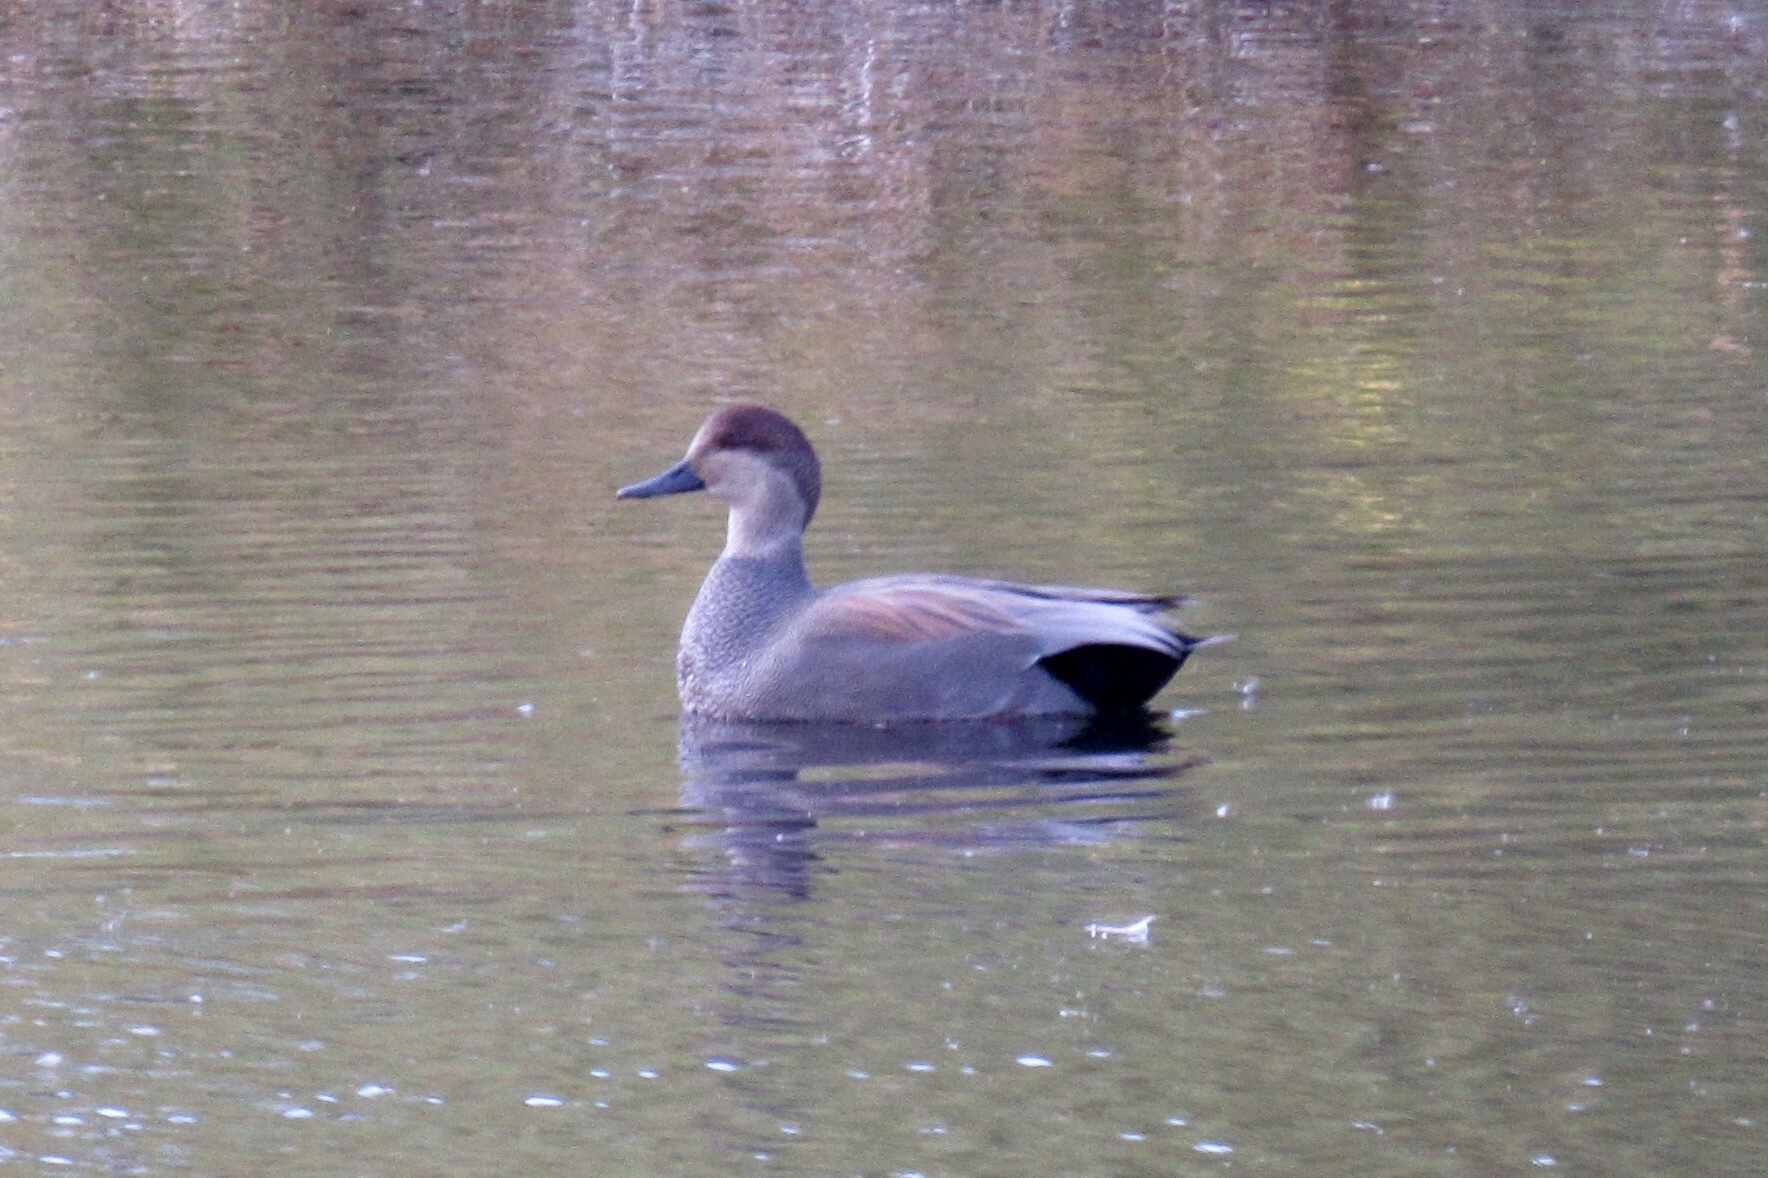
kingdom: Animalia
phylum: Chordata
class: Aves
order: Anseriformes
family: Anatidae
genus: Mareca
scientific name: Mareca strepera
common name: Gadwall
